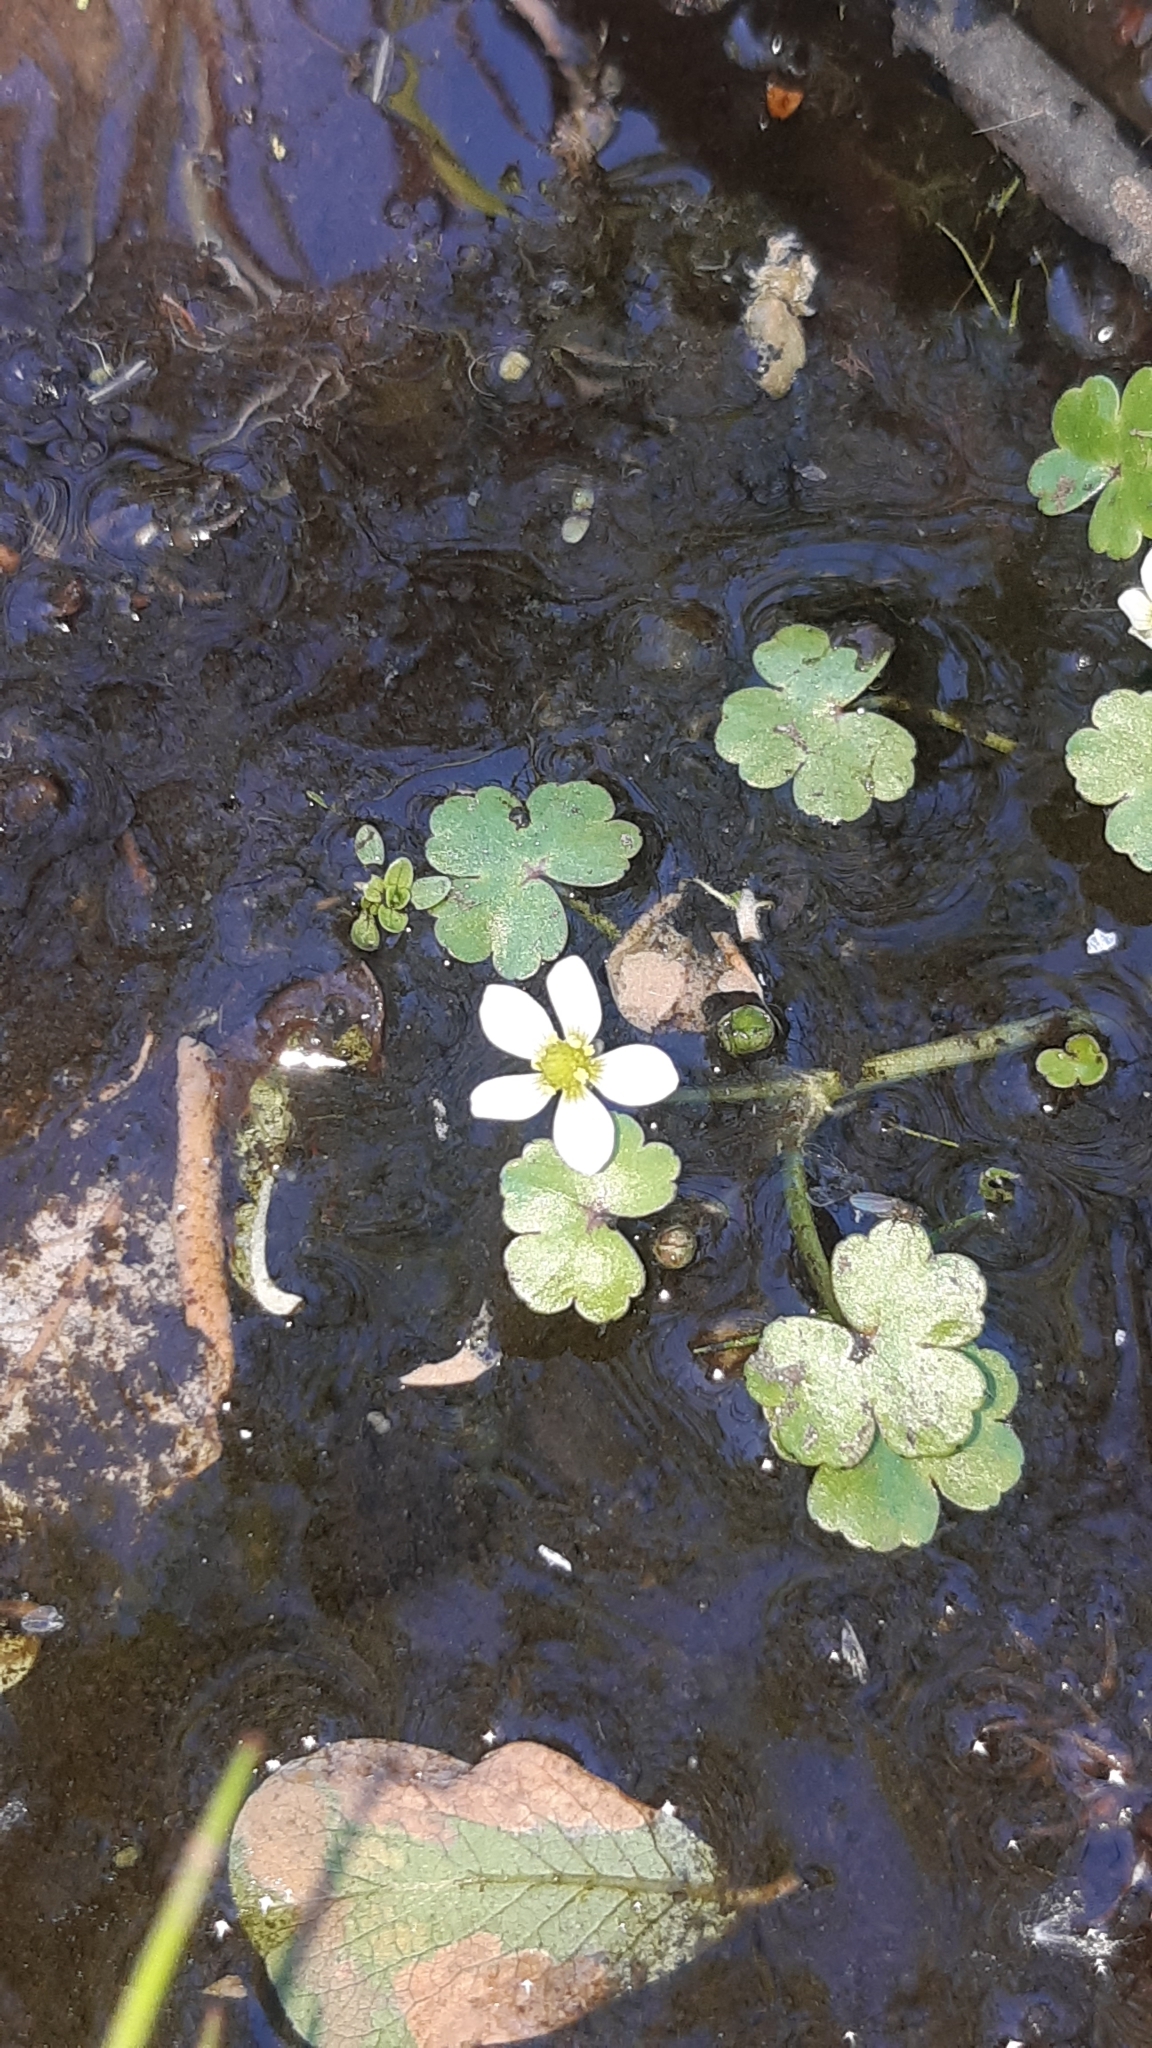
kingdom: Plantae
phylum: Tracheophyta
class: Magnoliopsida
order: Ranunculales
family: Ranunculaceae
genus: Ranunculus
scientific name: Ranunculus omiophyllus
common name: Round-leaved crowfoot
